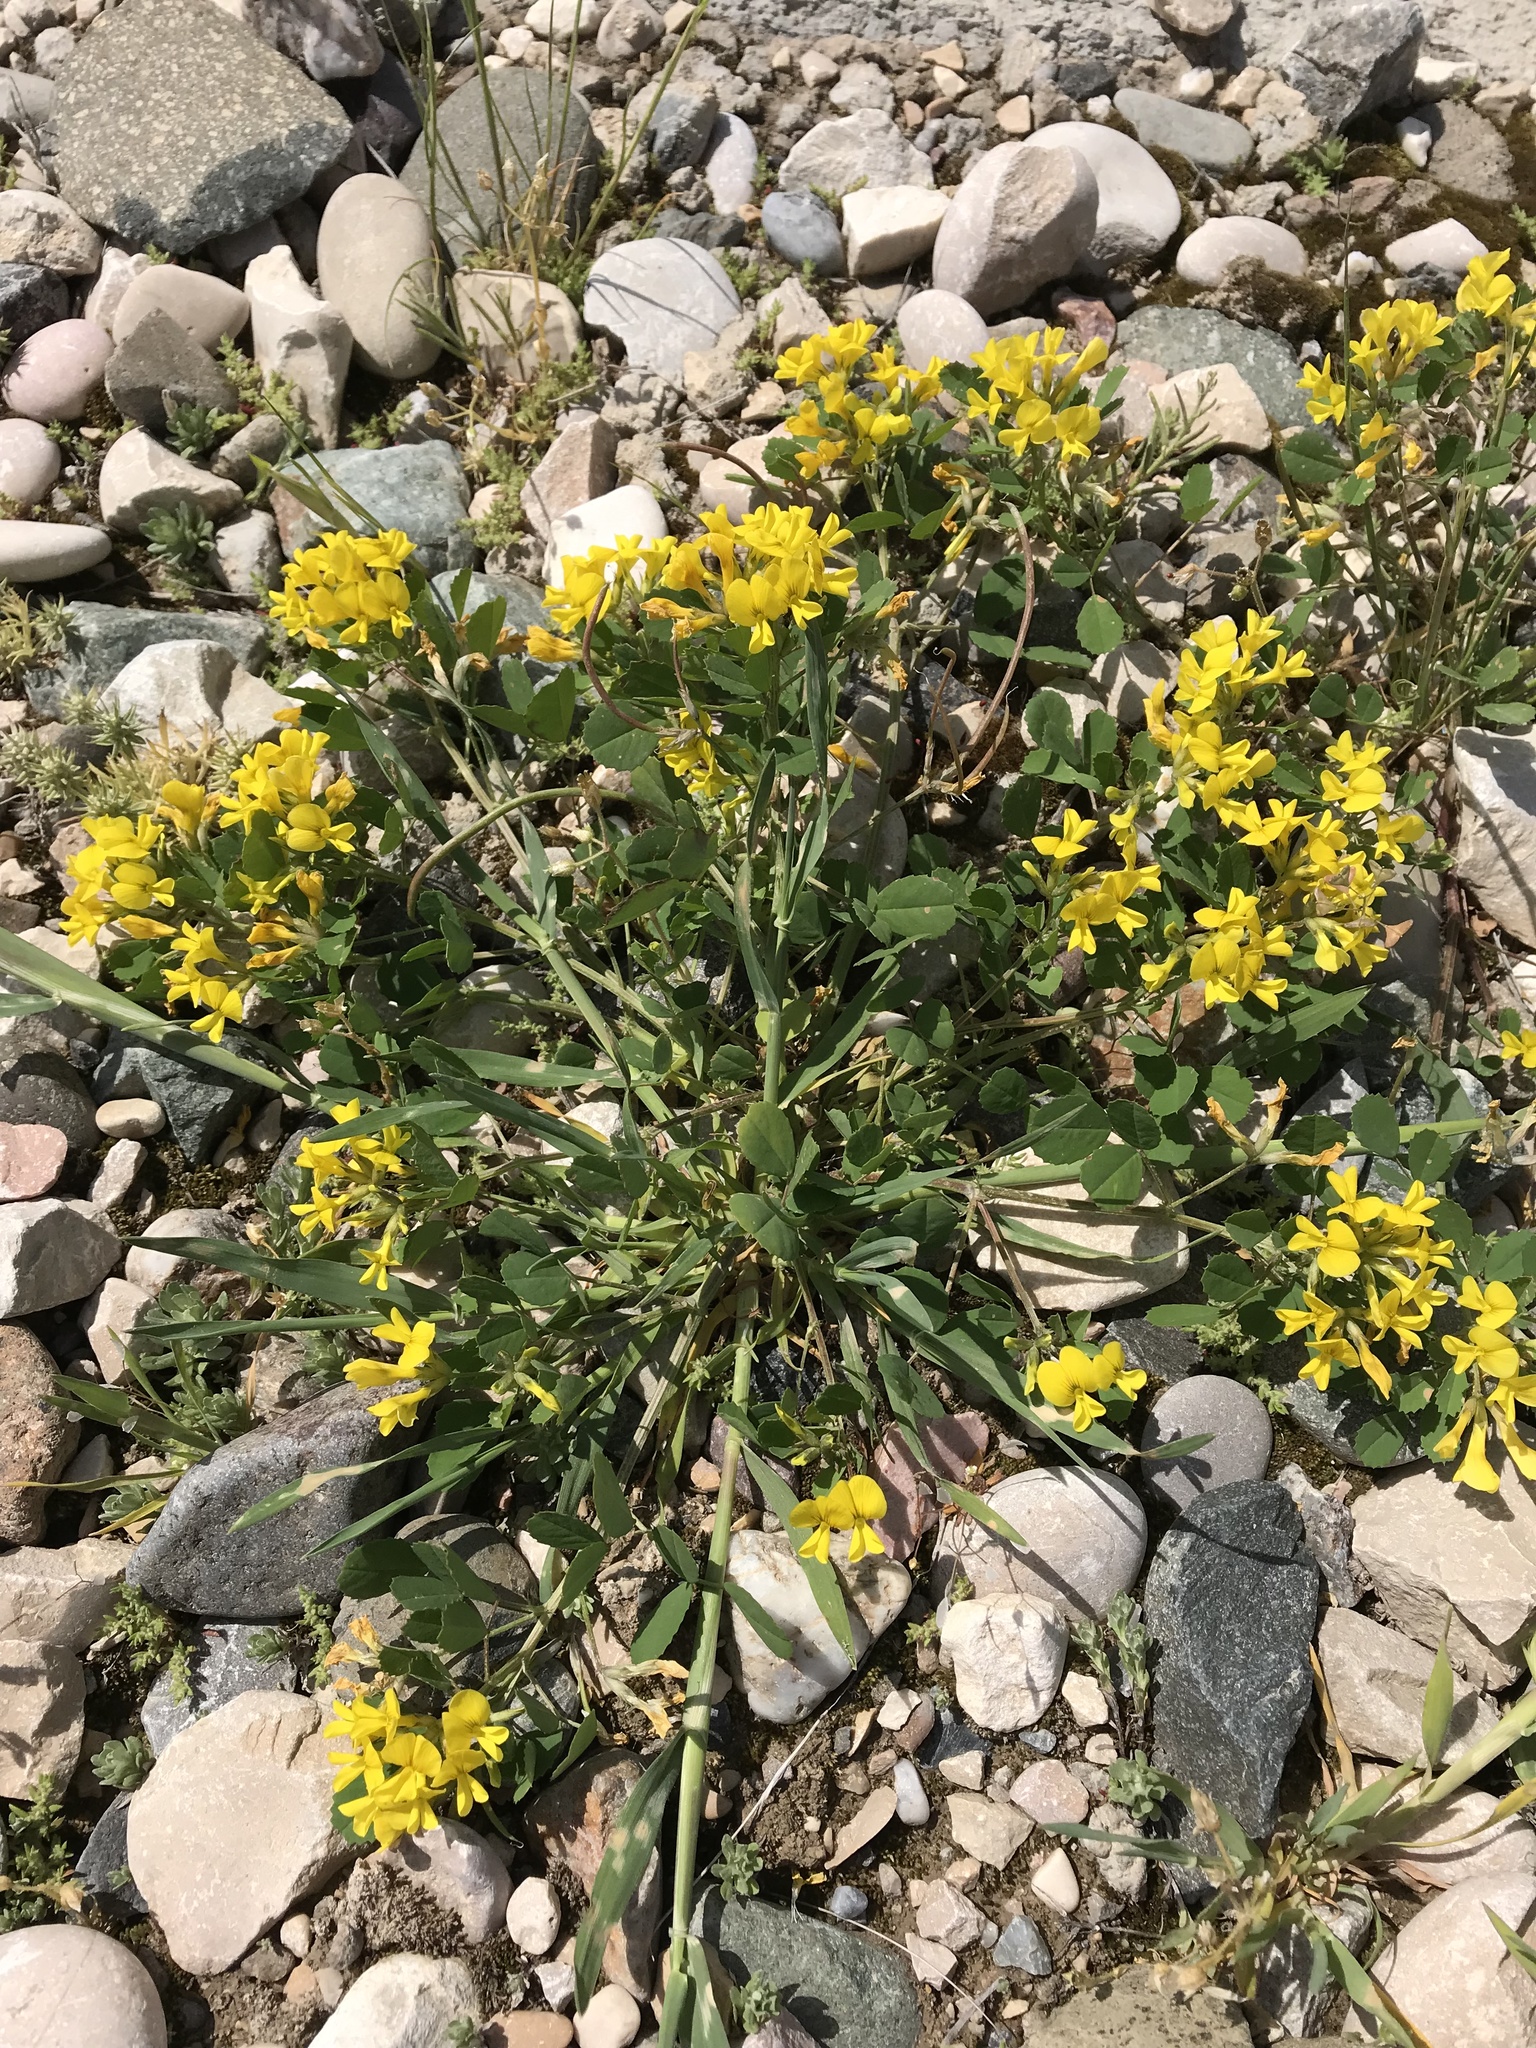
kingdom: Plantae
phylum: Tracheophyta
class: Magnoliopsida
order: Fabales
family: Fabaceae
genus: Medicago
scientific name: Medicago monantha
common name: Medick
